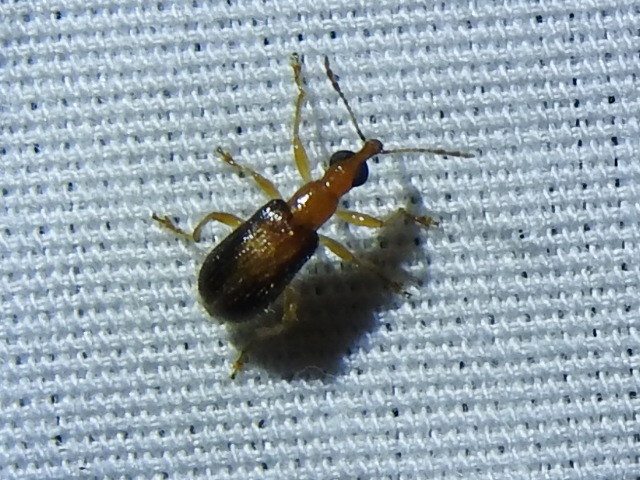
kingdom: Animalia
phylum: Arthropoda
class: Insecta
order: Coleoptera
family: Attelabidae
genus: Eugnamptus
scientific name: Eugnamptus cinctus
